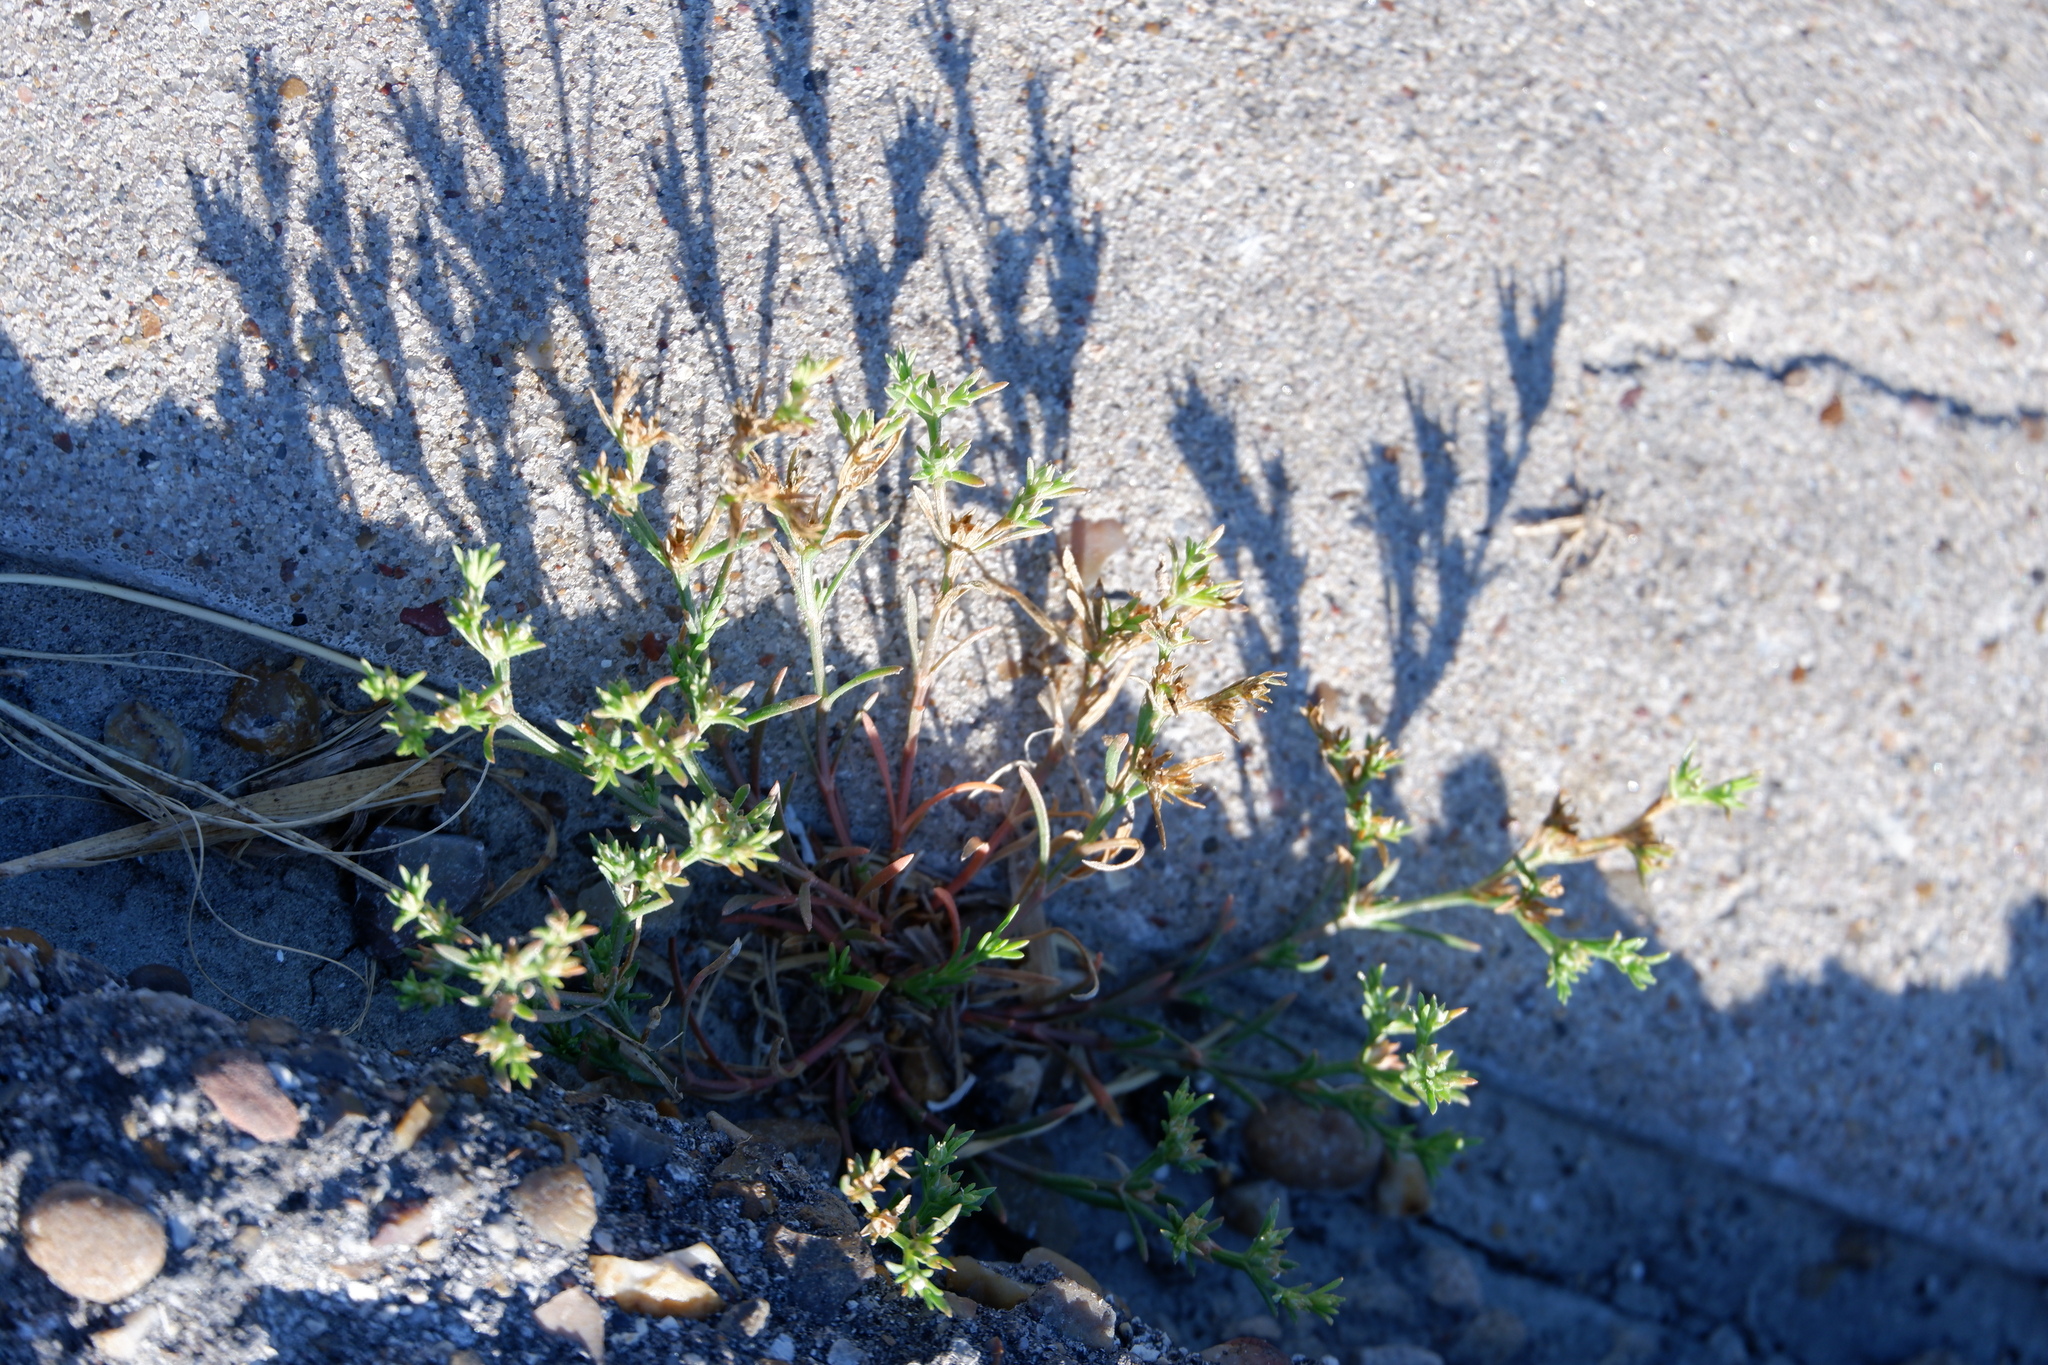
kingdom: Plantae
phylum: Tracheophyta
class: Magnoliopsida
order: Lamiales
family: Tetrachondraceae
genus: Polypremum
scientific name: Polypremum procumbens
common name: Juniper-leaf
